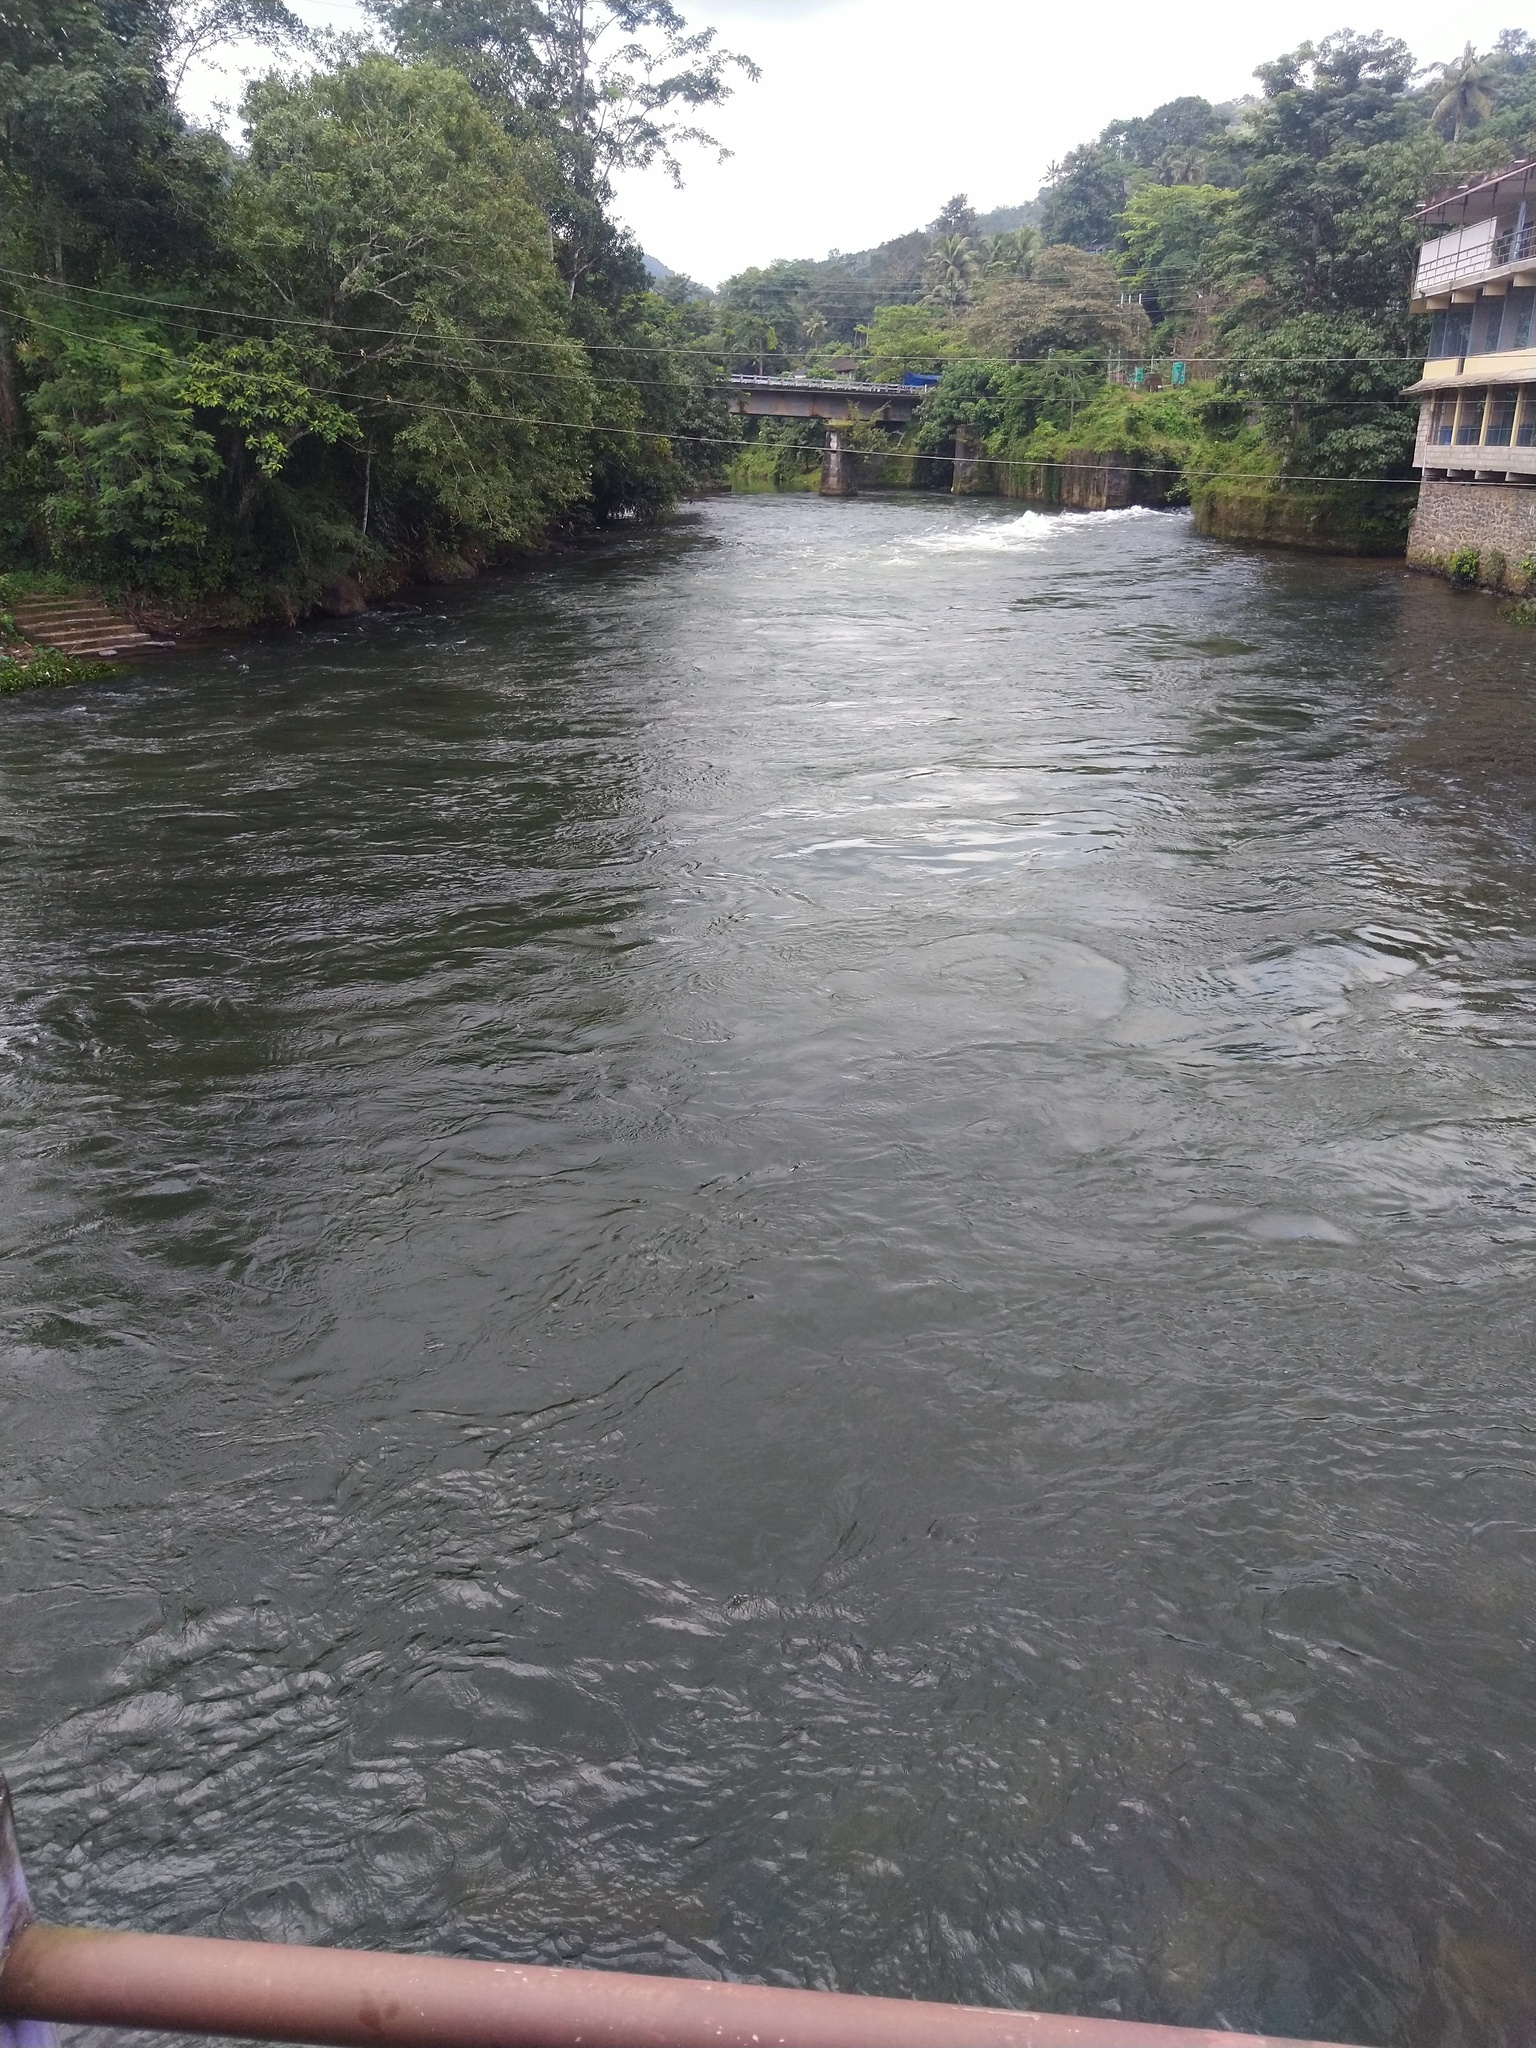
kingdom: Animalia
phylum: Chordata
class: Aves
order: Coraciiformes
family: Meropidae
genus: Merops
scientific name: Merops leschenaulti
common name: Chestnut-headed bee-eater
